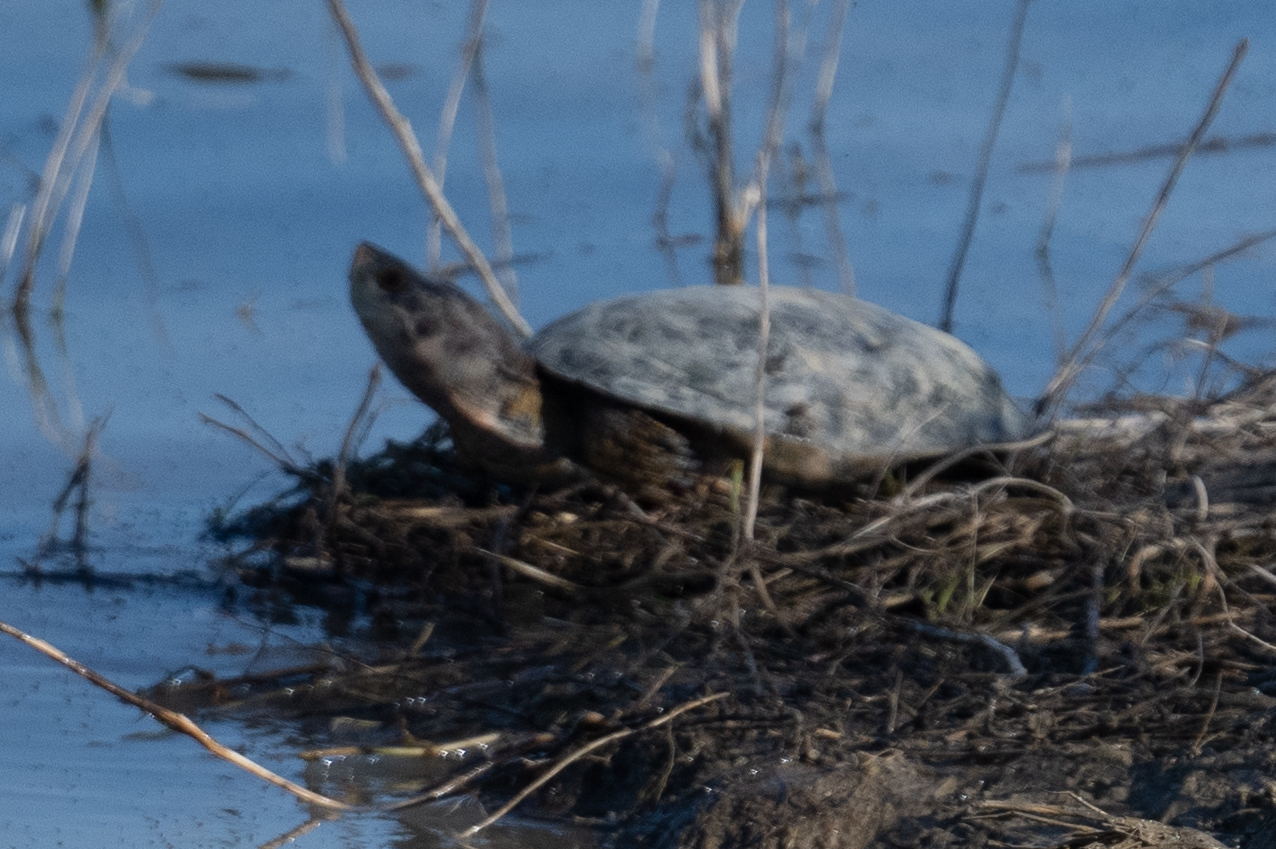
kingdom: Animalia
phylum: Chordata
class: Testudines
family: Emydidae
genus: Actinemys
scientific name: Actinemys marmorata
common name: Western pond turtle
